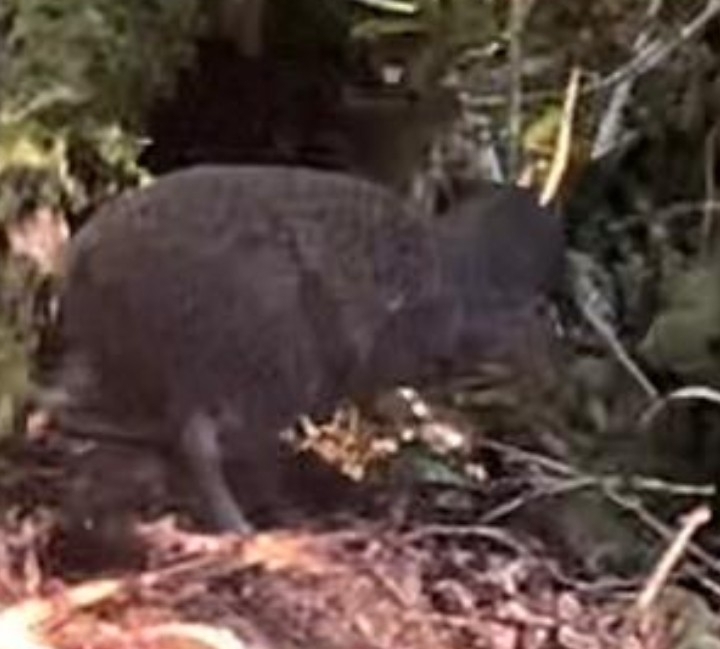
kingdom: Animalia
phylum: Chordata
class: Aves
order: Apterygiformes
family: Apterygidae
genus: Apteryx
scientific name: Apteryx haastii
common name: Great spotted kiwi
